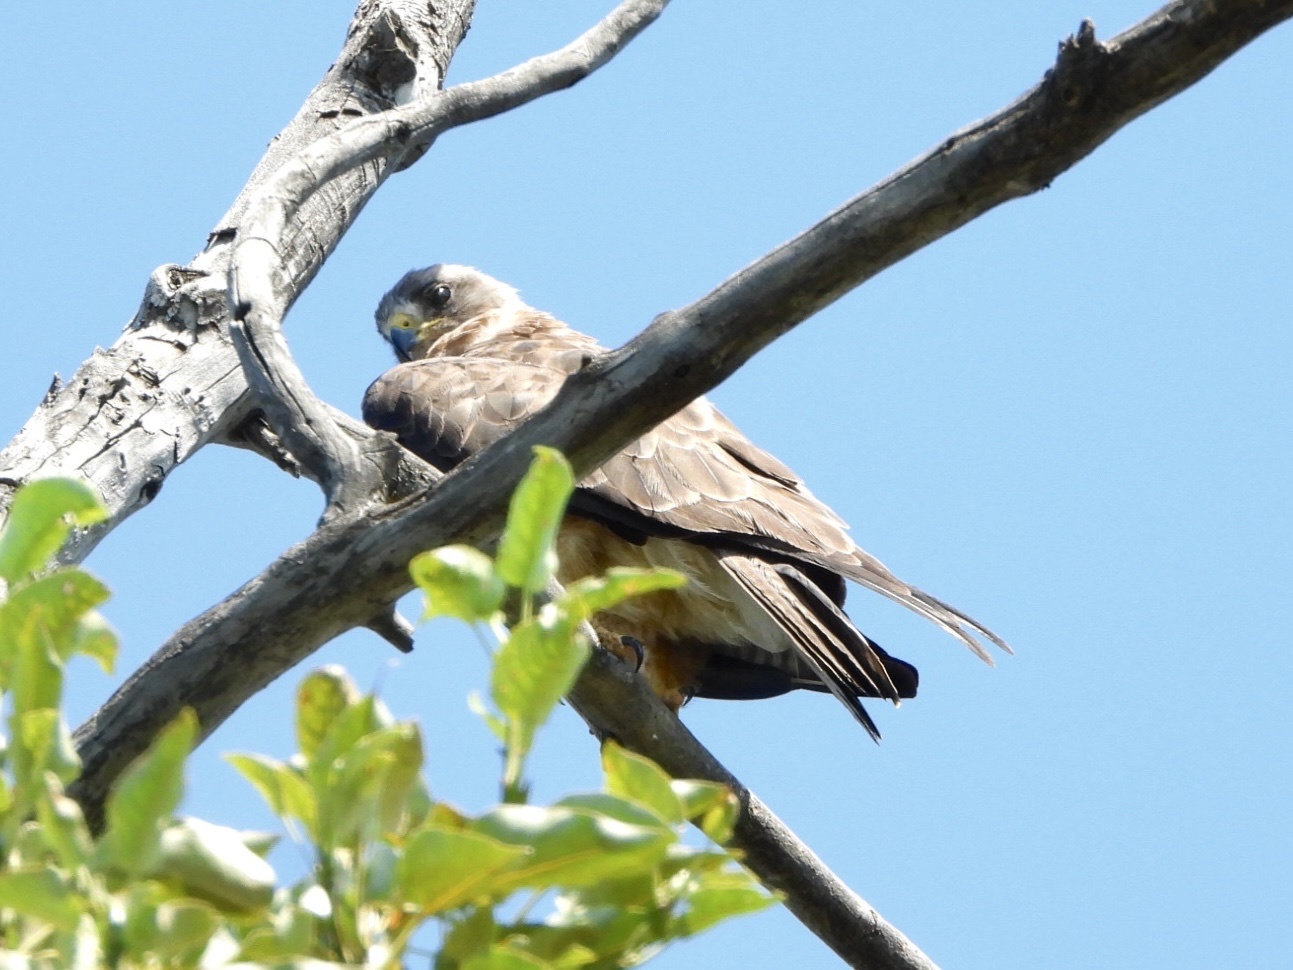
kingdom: Animalia
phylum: Chordata
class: Aves
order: Accipitriformes
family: Accipitridae
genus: Buteo
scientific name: Buteo swainsoni
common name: Swainson's hawk
